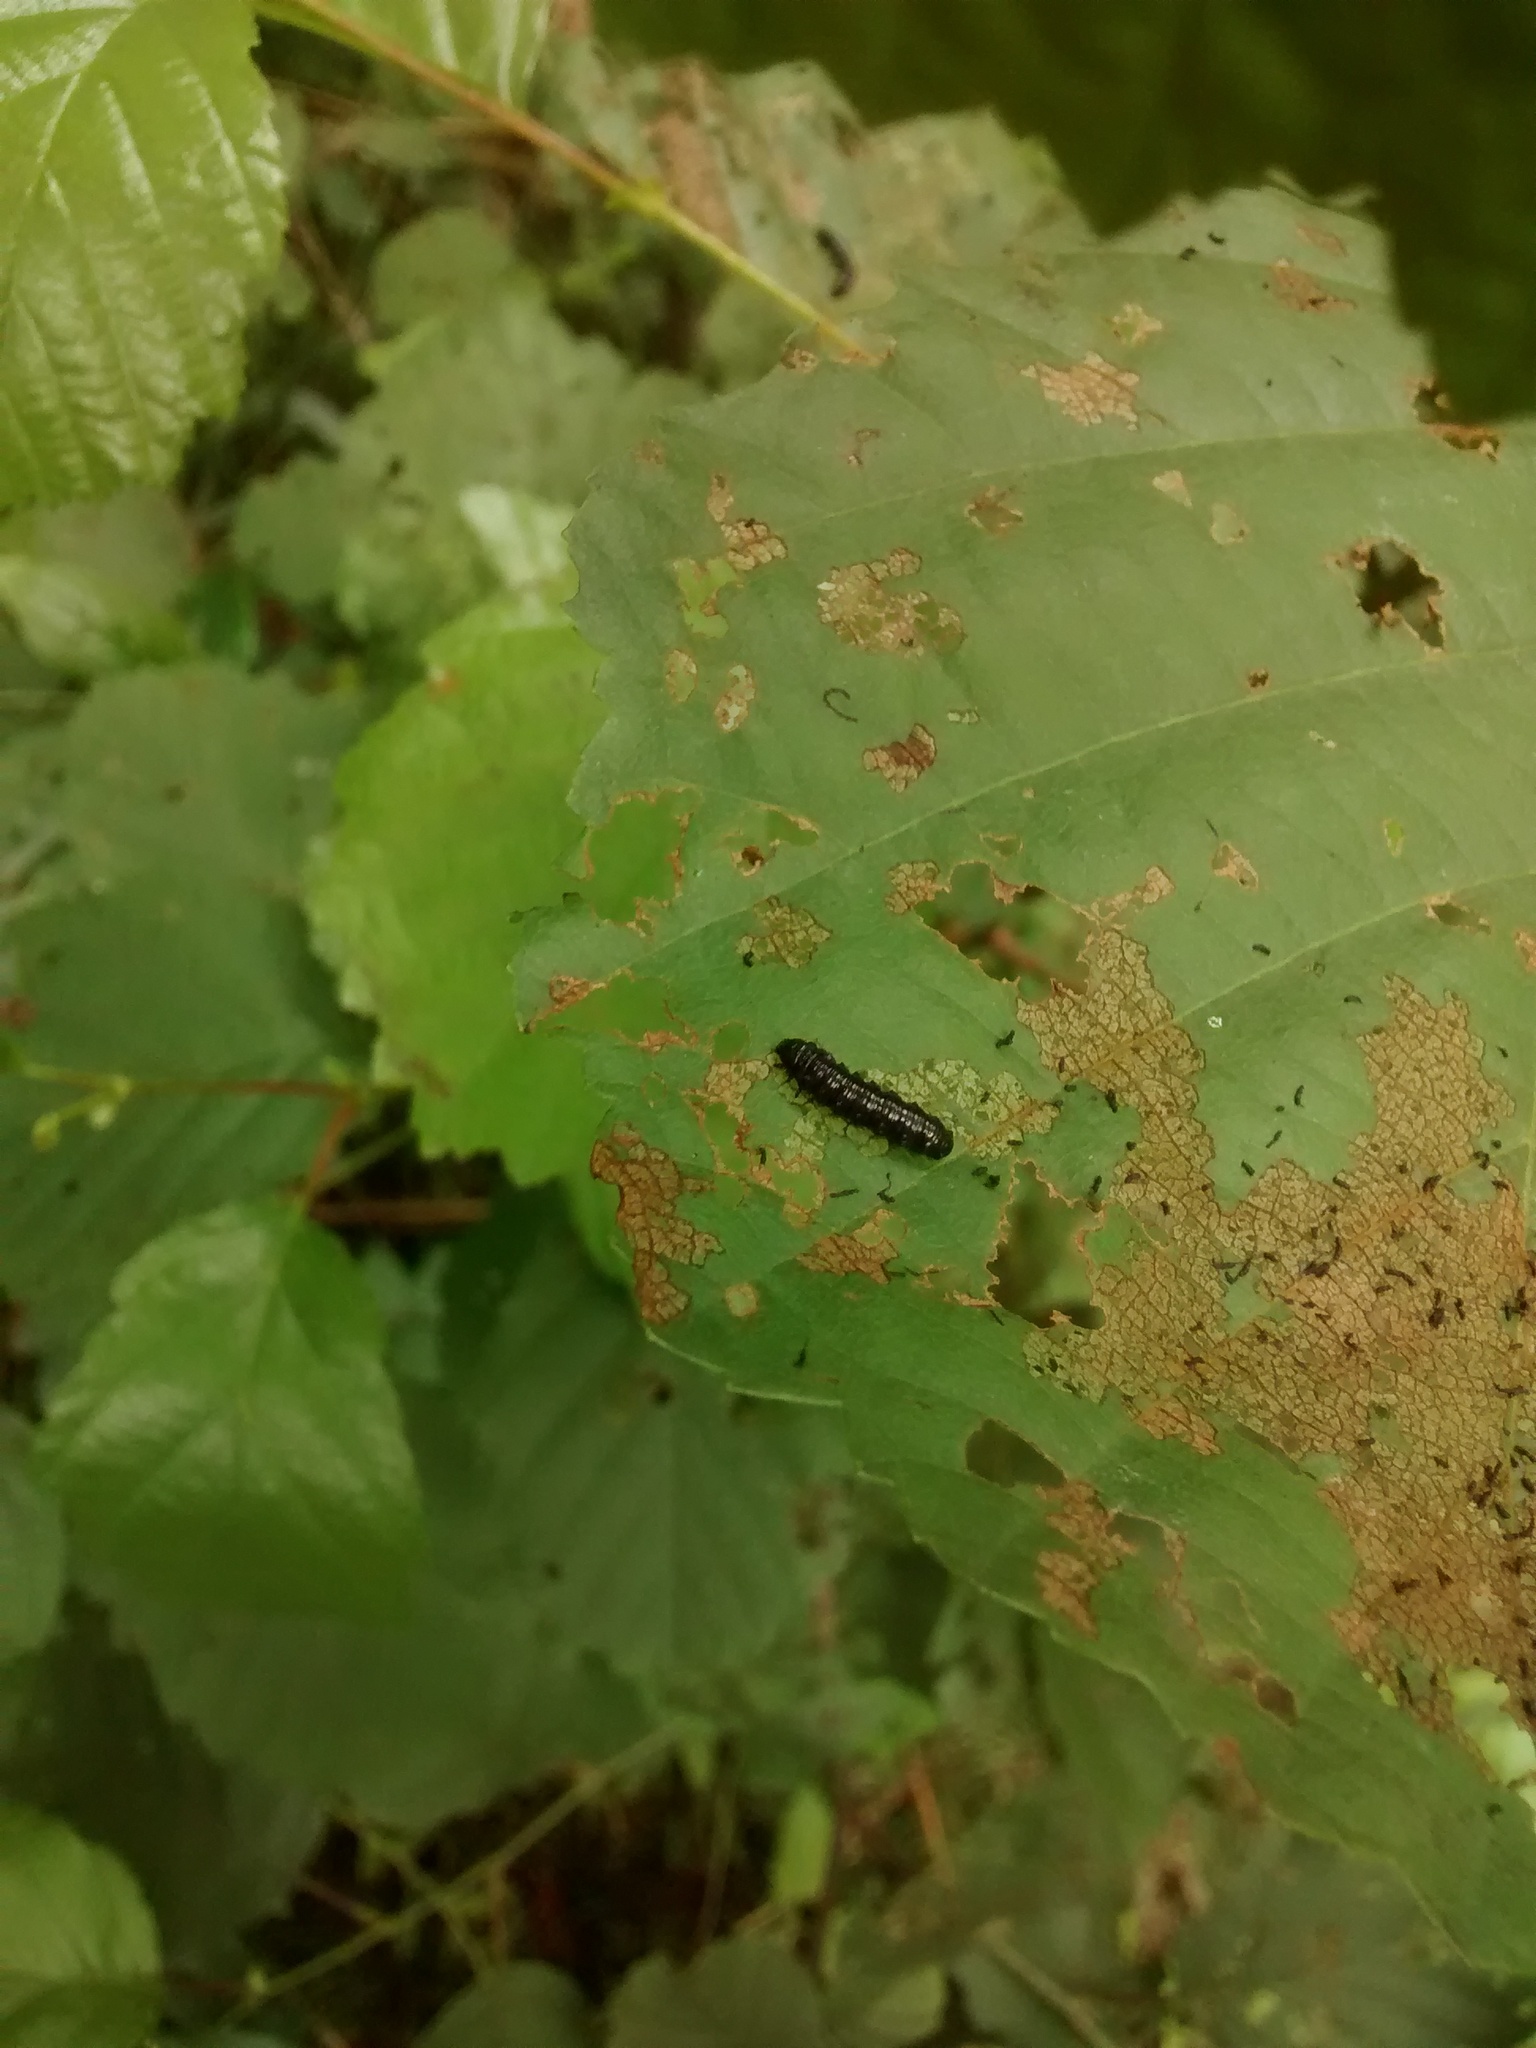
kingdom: Animalia
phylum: Arthropoda
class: Insecta
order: Coleoptera
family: Chrysomelidae
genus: Agelastica
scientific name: Agelastica alni
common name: Alder leaf beetle
